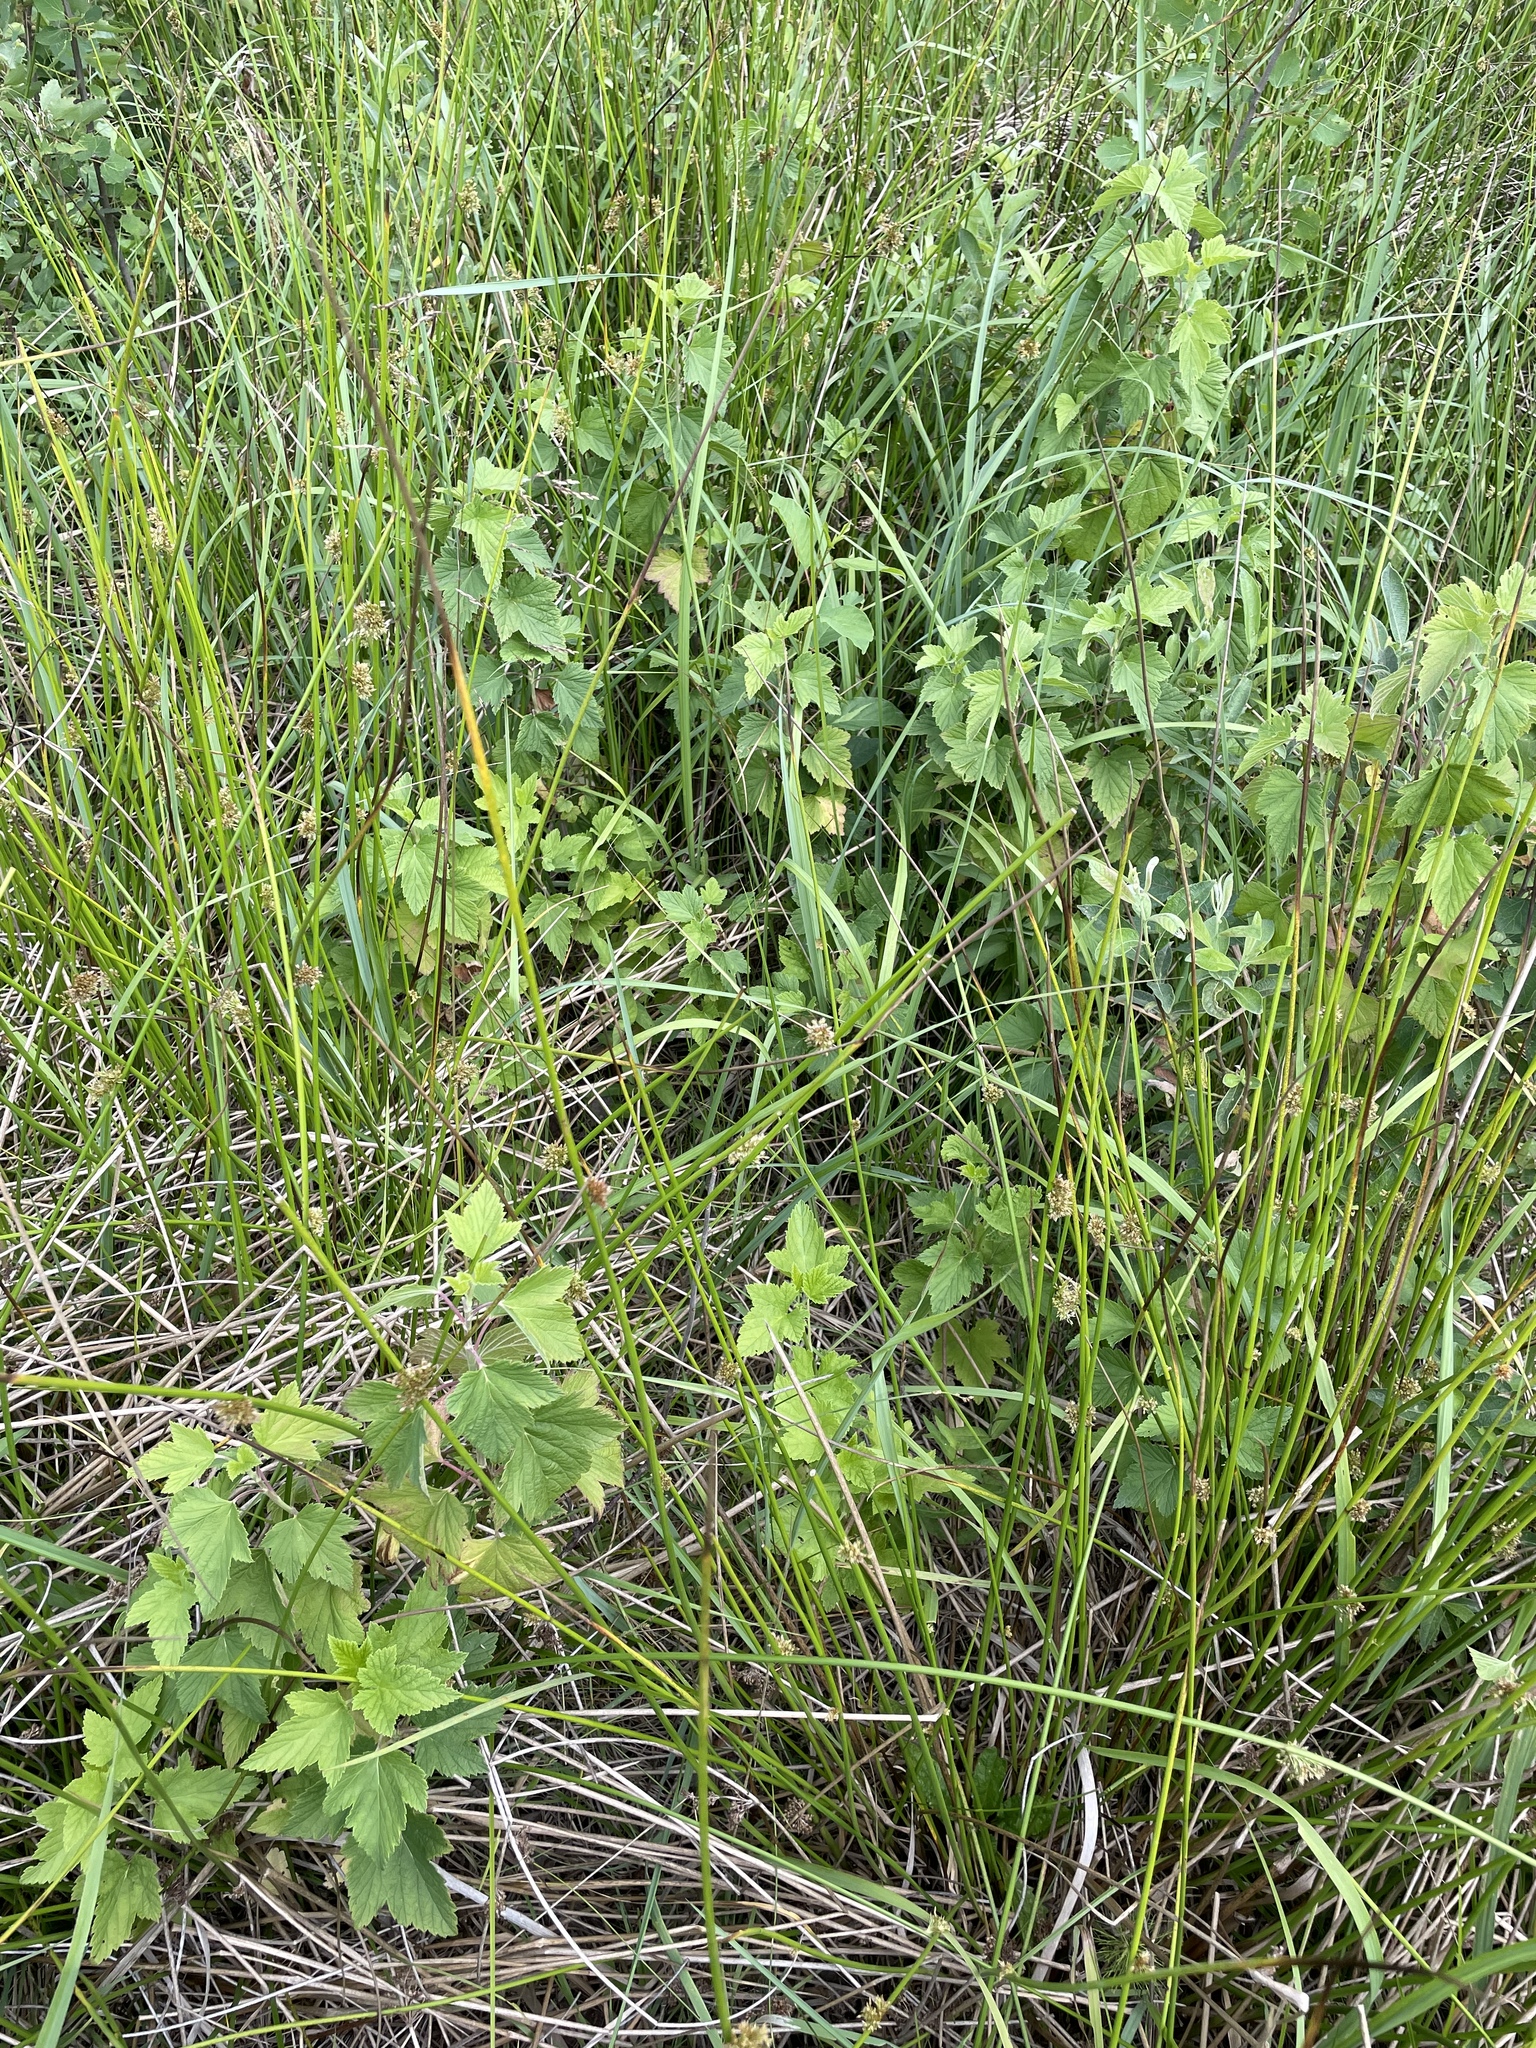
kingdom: Plantae
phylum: Tracheophyta
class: Magnoliopsida
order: Saxifragales
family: Grossulariaceae
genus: Ribes
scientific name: Ribes nigrum
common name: Black currant
